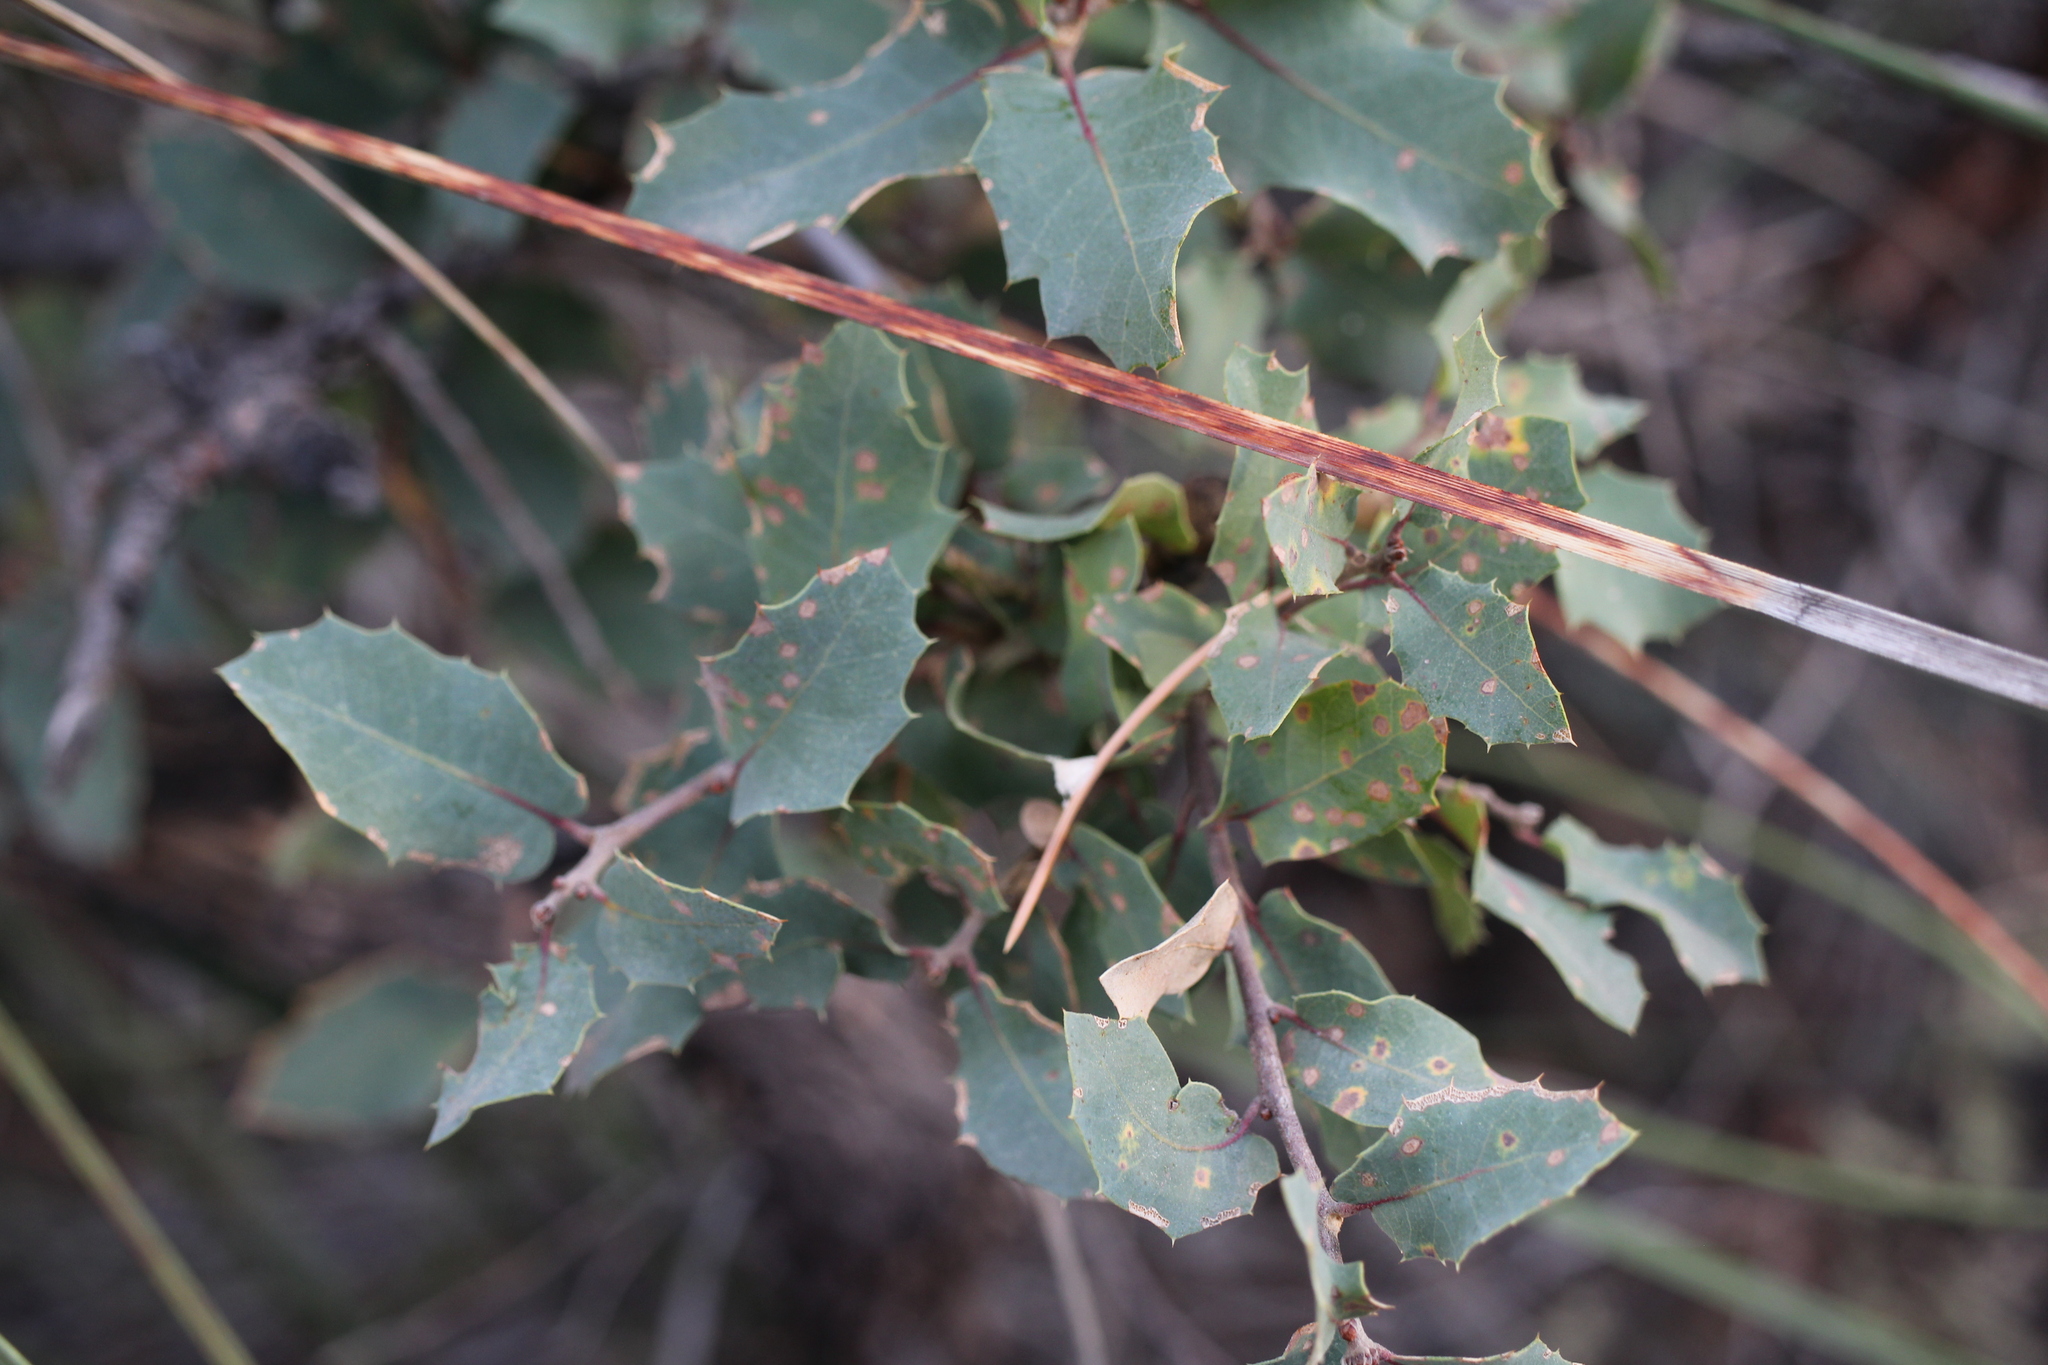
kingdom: Animalia
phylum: Arthropoda
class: Insecta
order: Hymenoptera
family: Cynipidae
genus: Biorhiza
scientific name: Biorhiza
